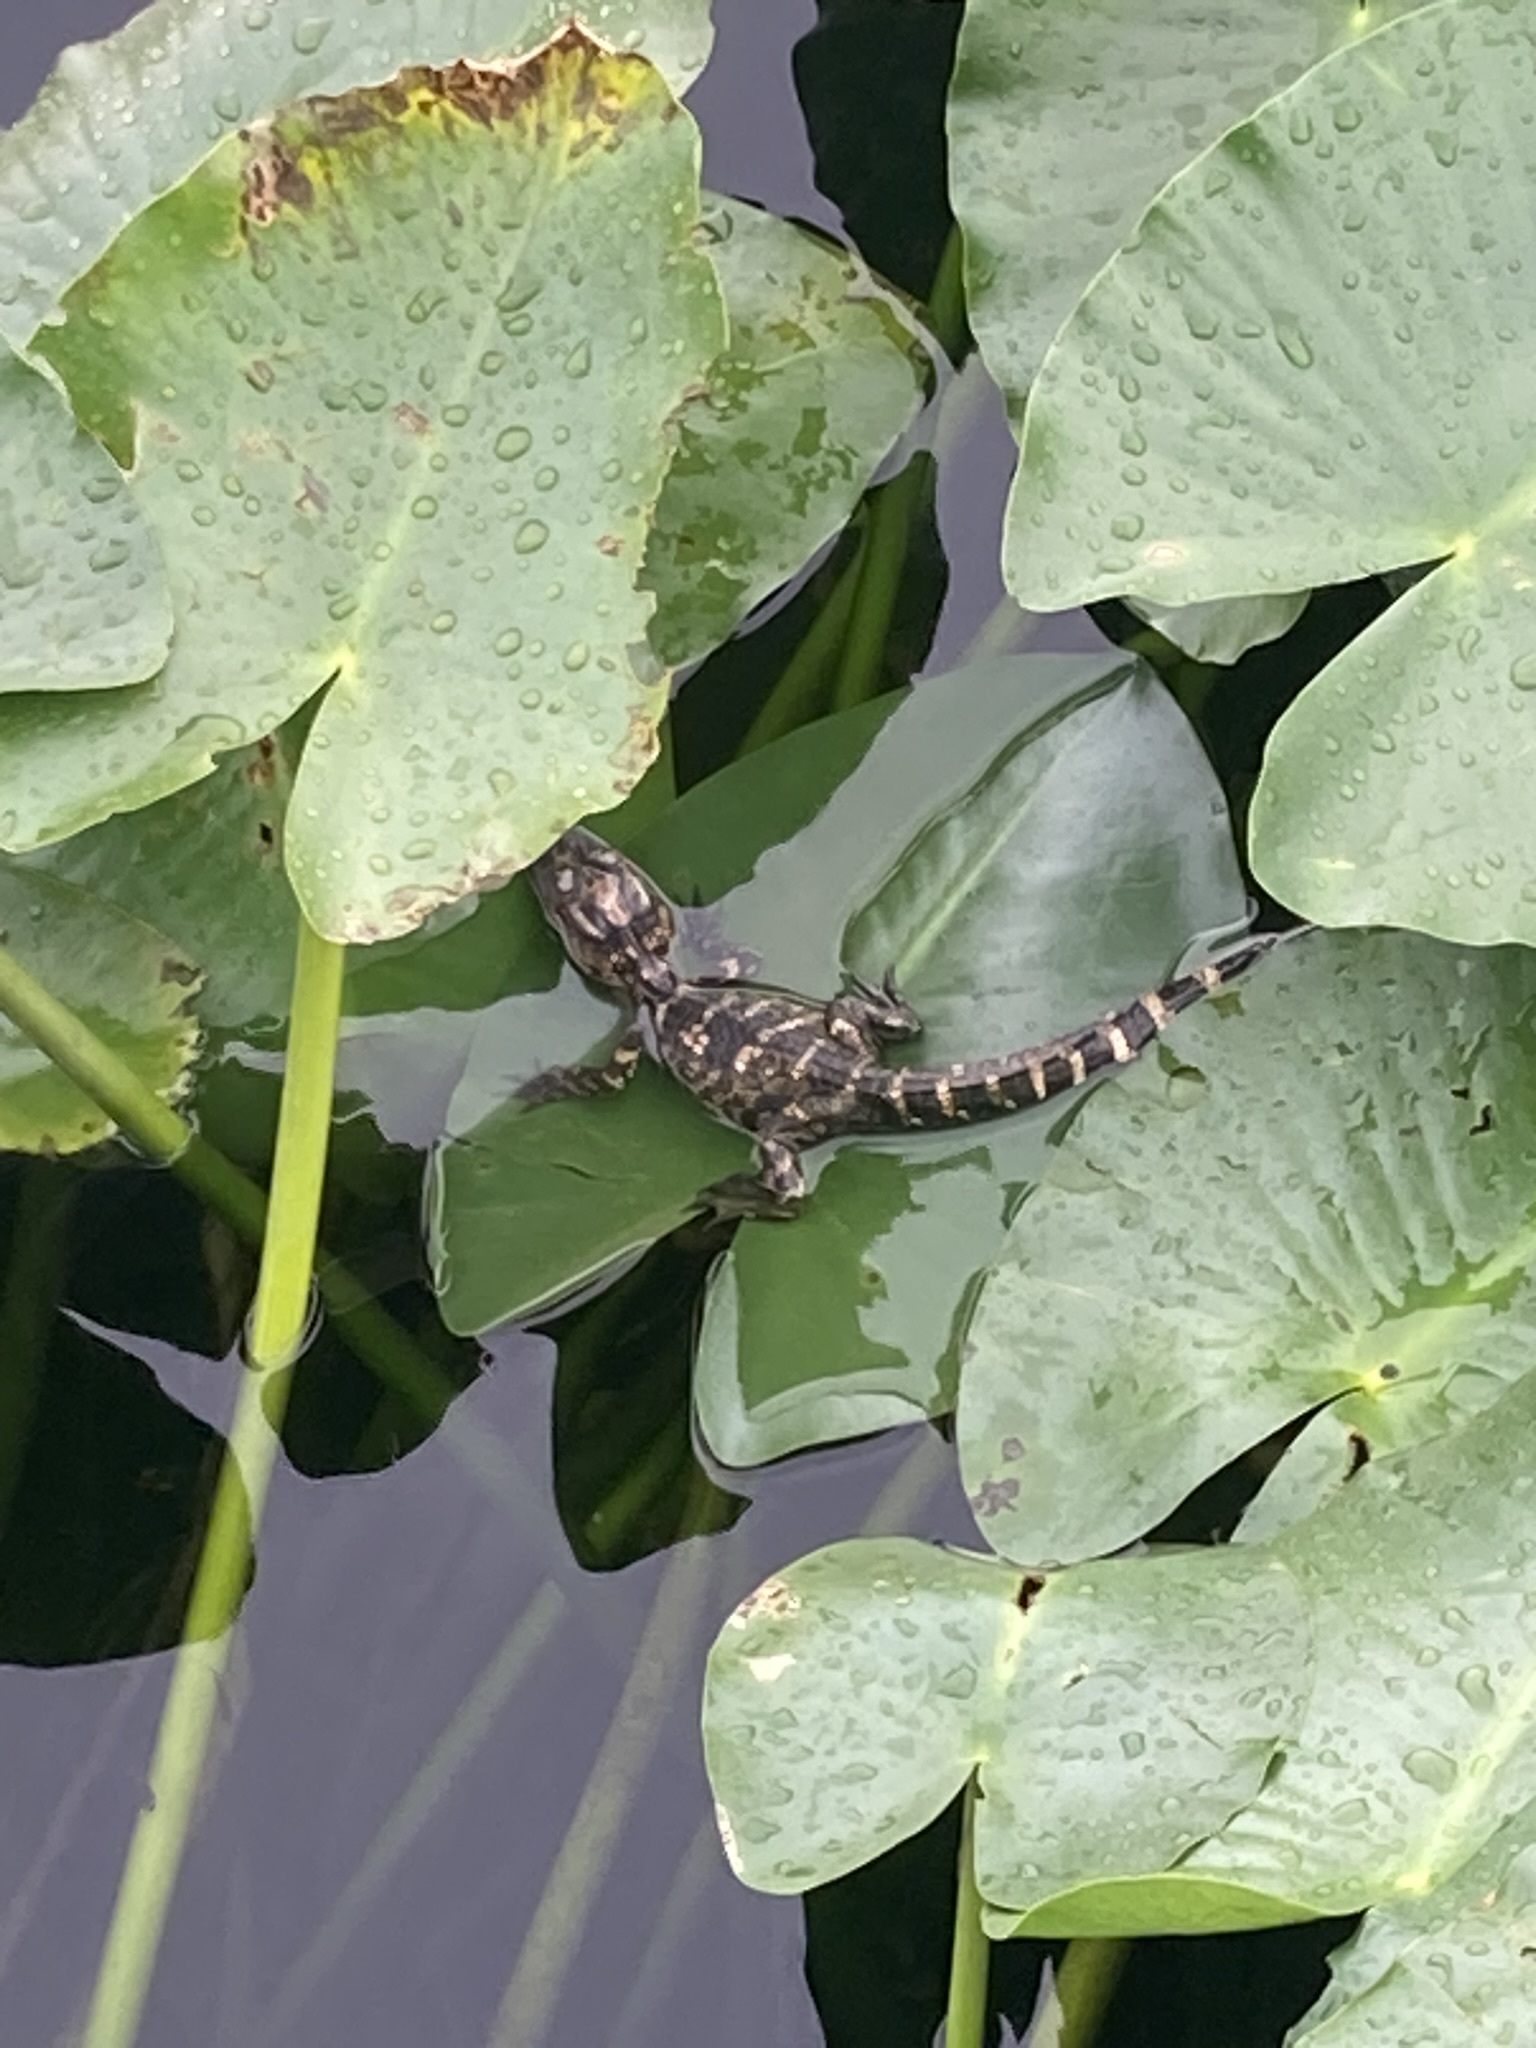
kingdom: Animalia
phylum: Chordata
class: Crocodylia
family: Alligatoridae
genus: Alligator
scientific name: Alligator mississippiensis
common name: American alligator
